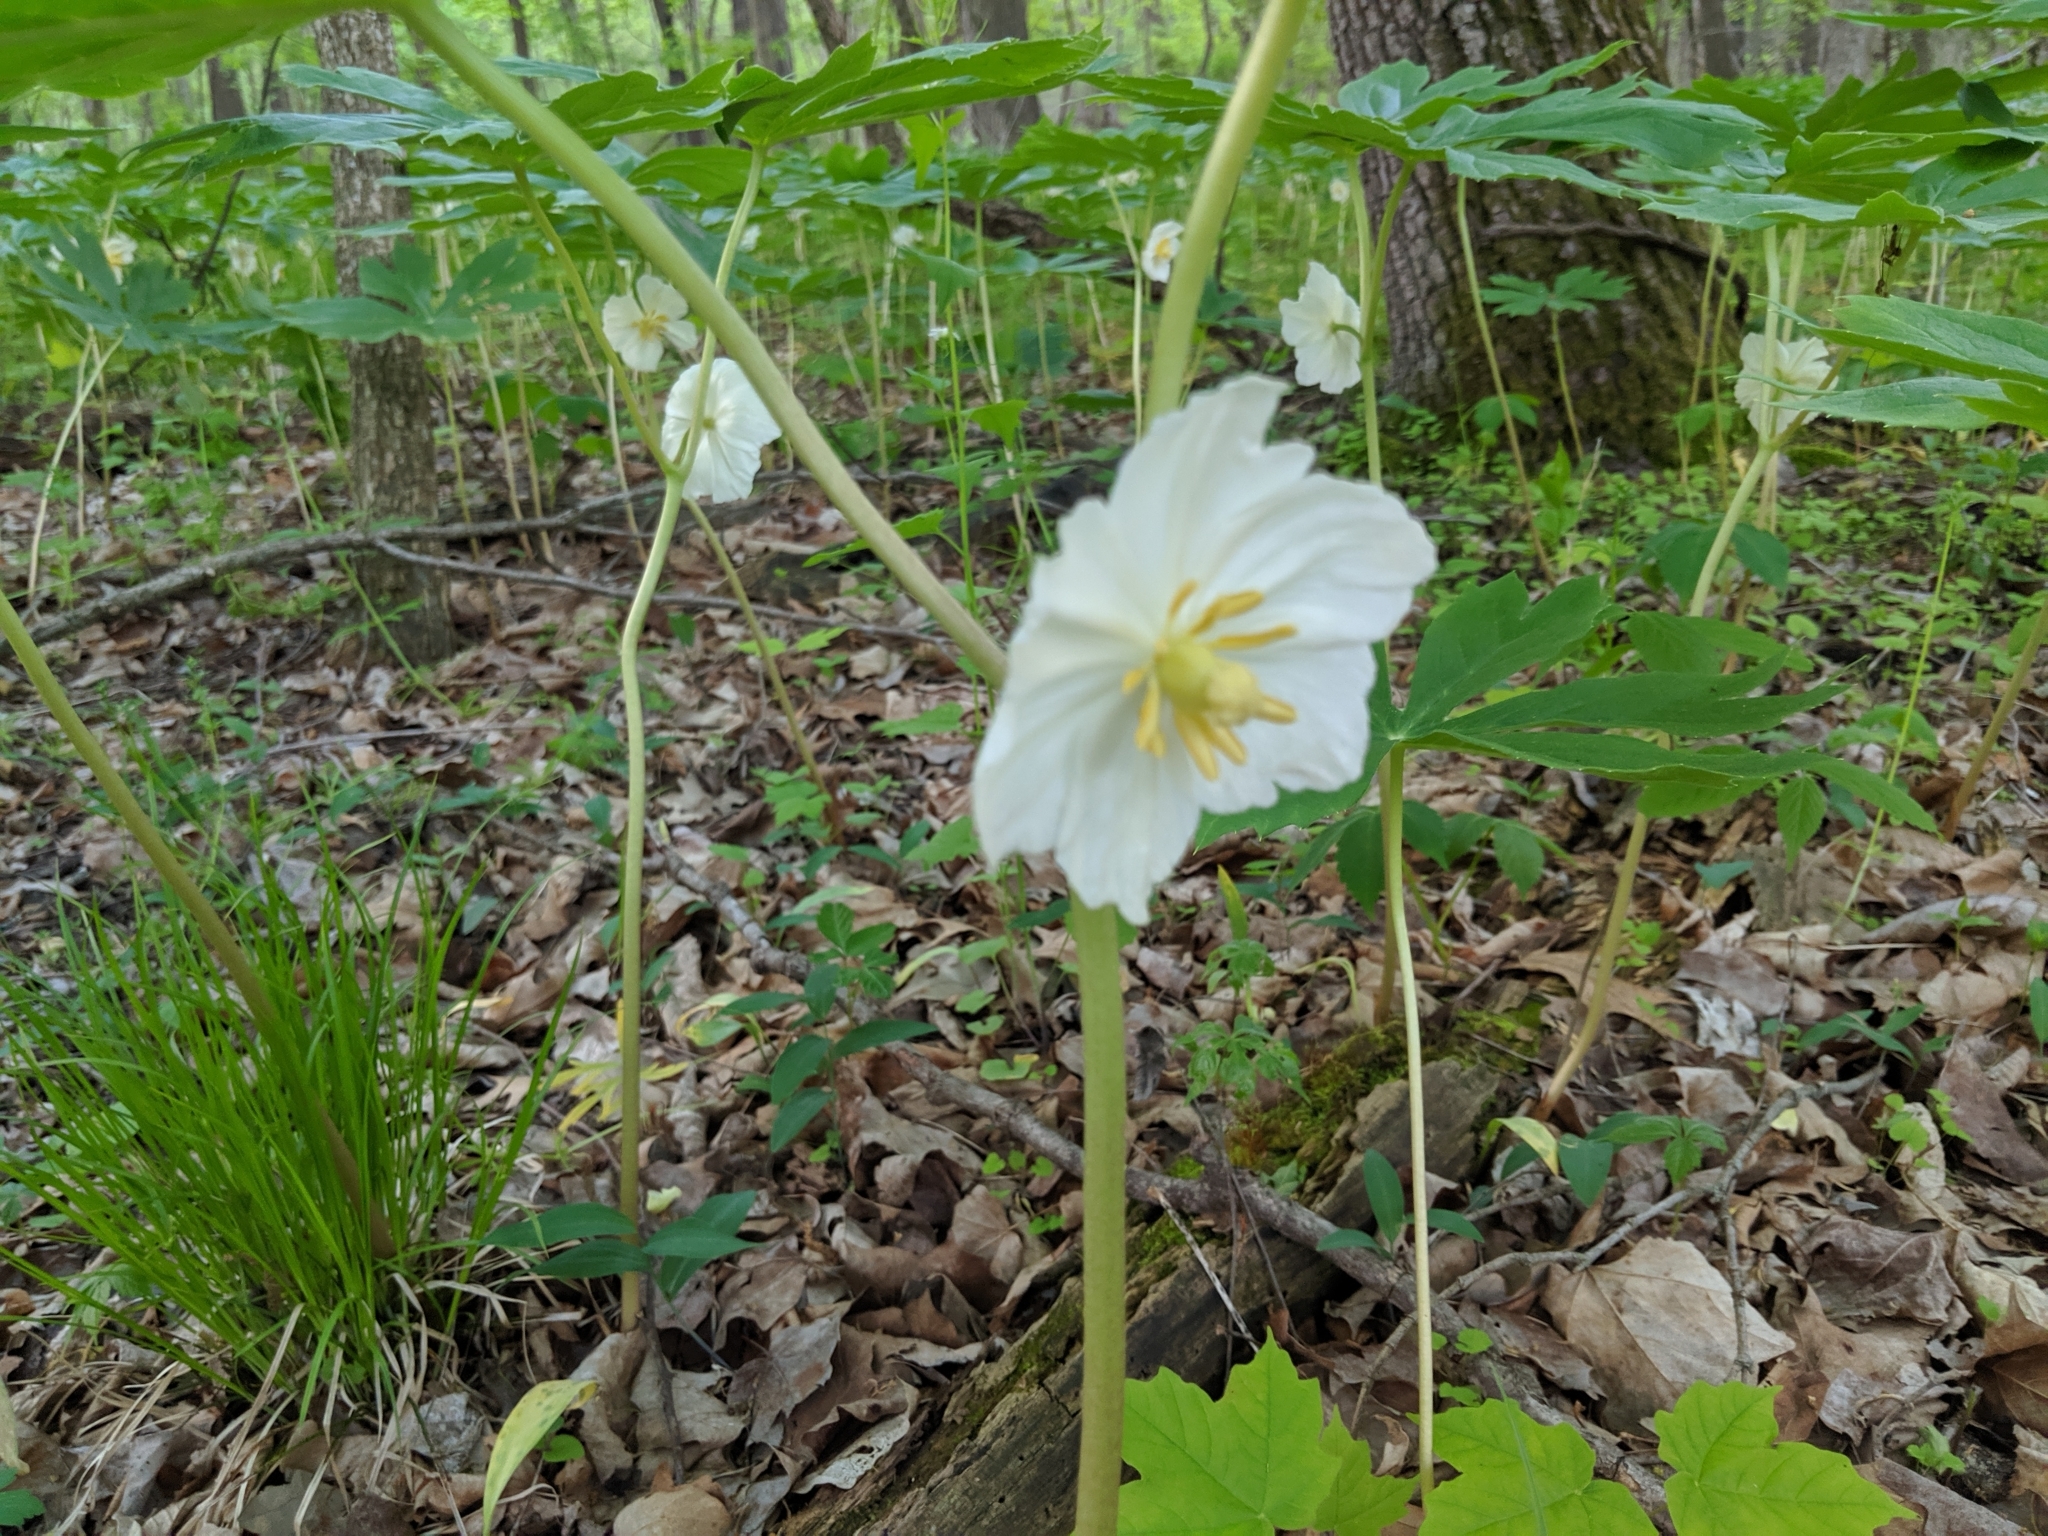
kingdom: Plantae
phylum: Tracheophyta
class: Magnoliopsida
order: Ranunculales
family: Berberidaceae
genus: Podophyllum
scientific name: Podophyllum peltatum
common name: Wild mandrake
